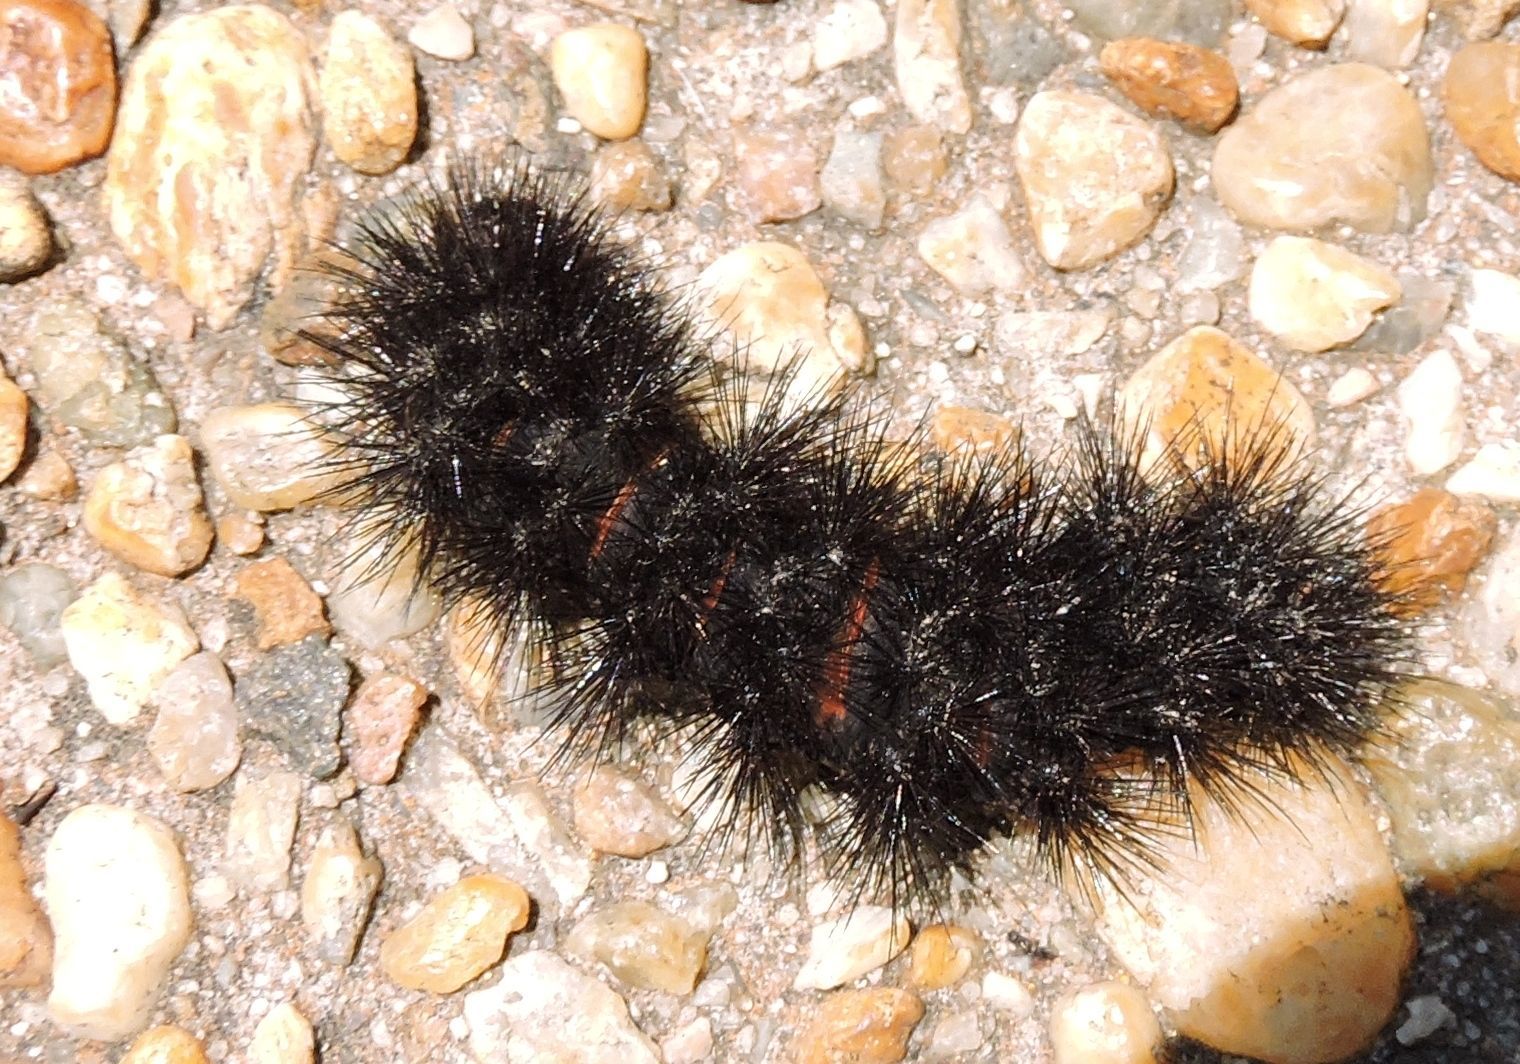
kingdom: Animalia
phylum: Arthropoda
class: Insecta
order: Lepidoptera
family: Erebidae
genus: Hypercompe
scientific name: Hypercompe scribonia
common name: Giant leopard moth
